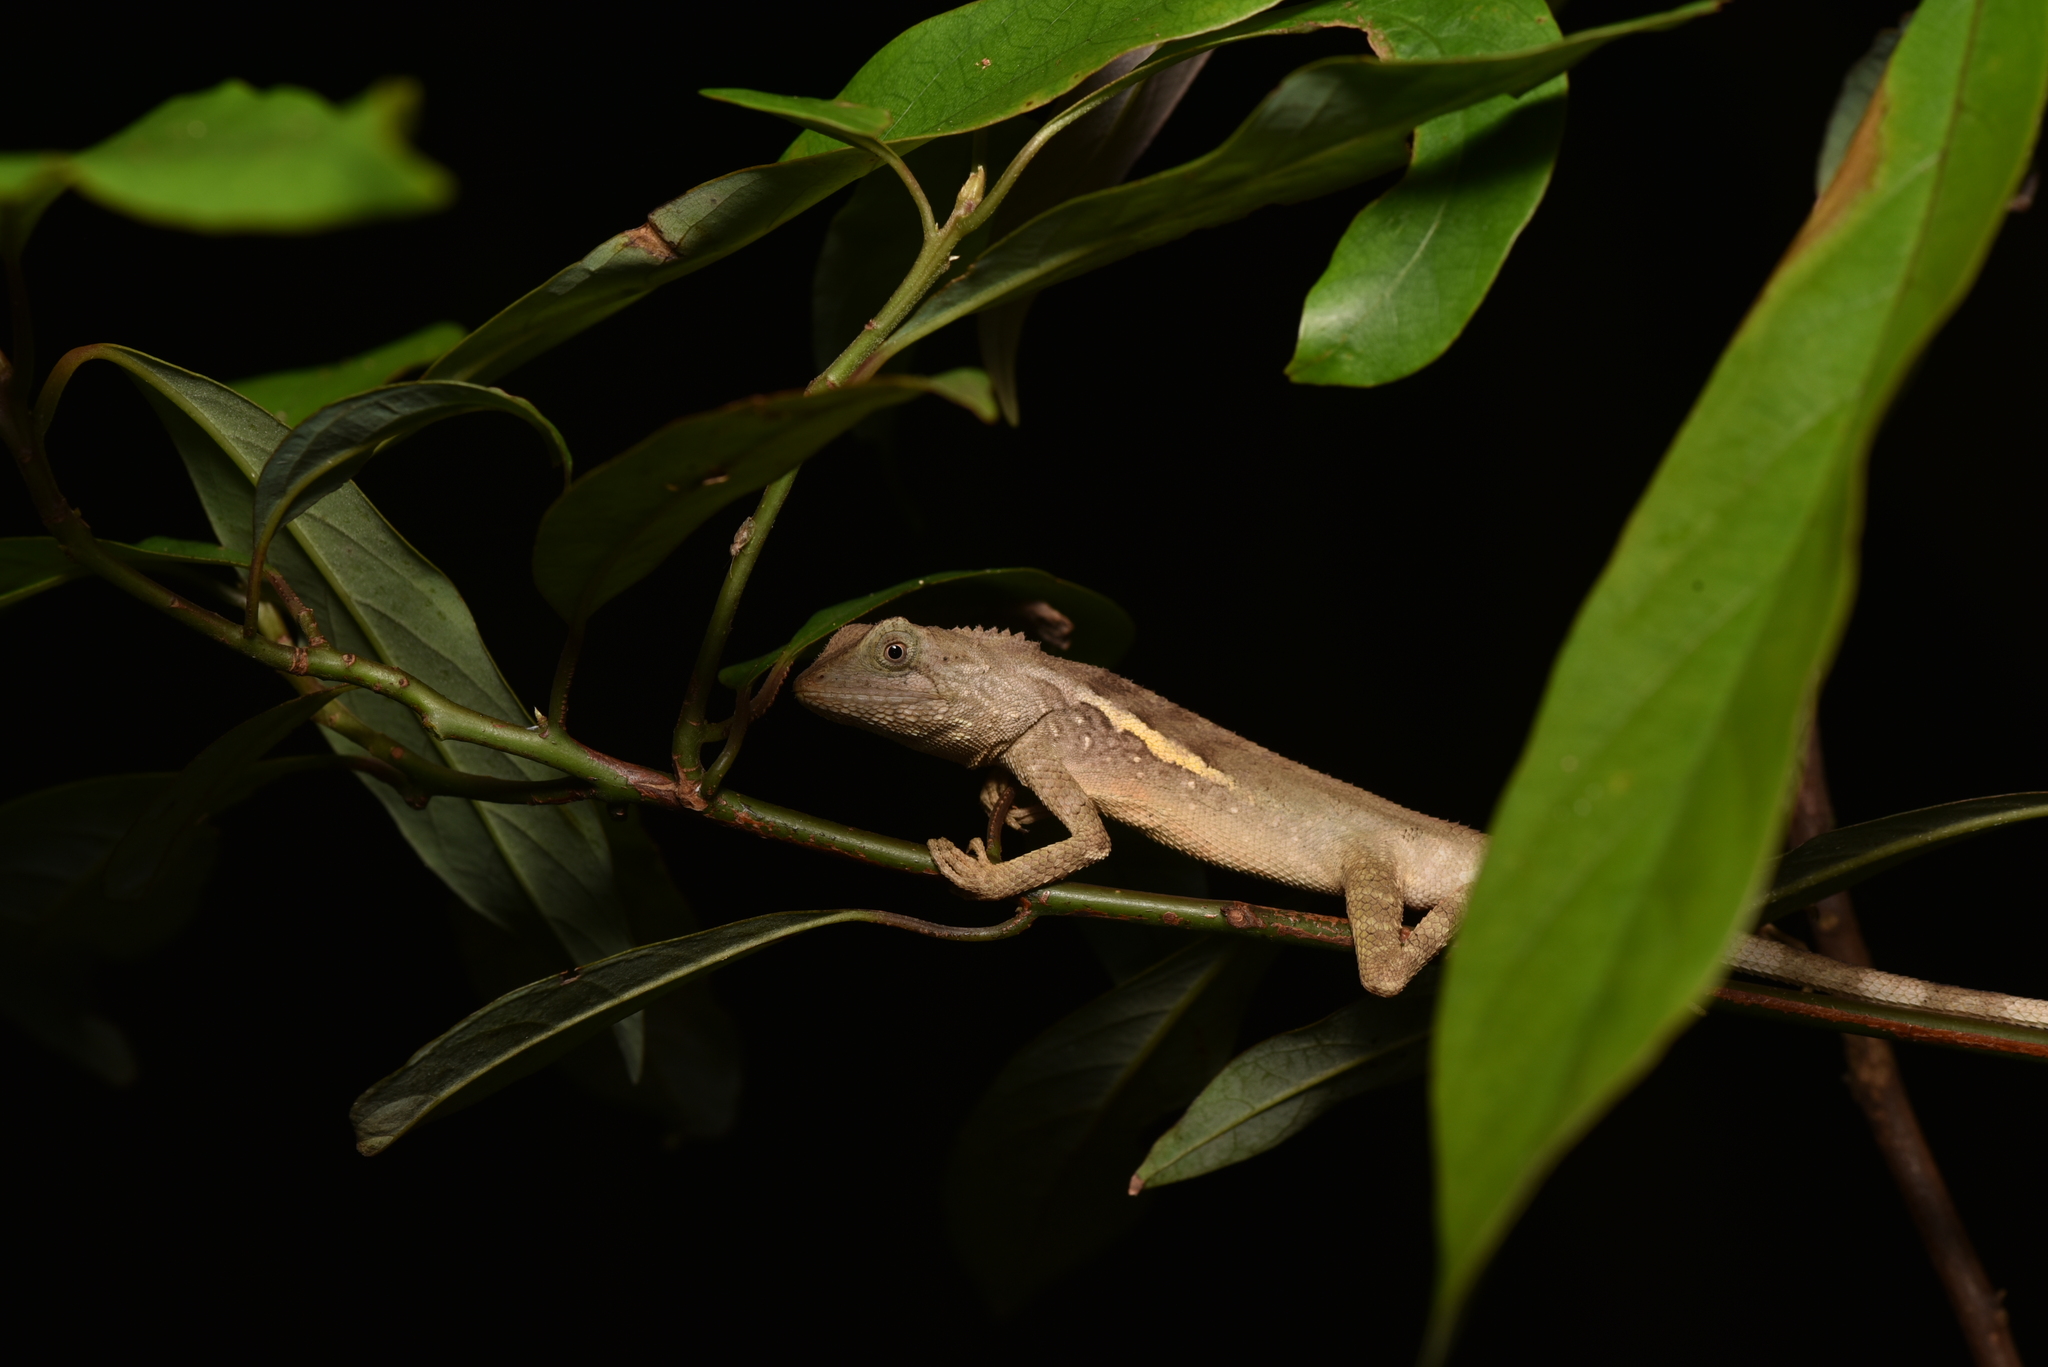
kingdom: Animalia
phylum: Chordata
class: Squamata
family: Agamidae
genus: Diploderma
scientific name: Diploderma swinhonis
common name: Taiwan japalure
